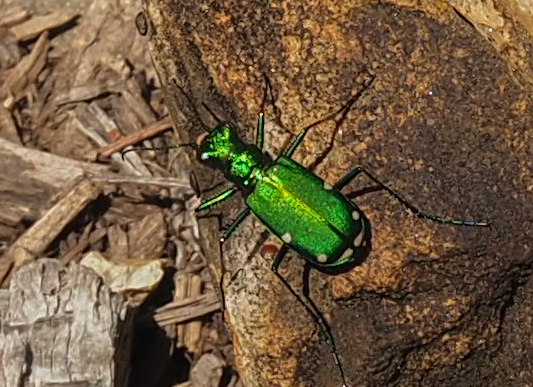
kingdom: Animalia
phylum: Arthropoda
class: Insecta
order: Coleoptera
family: Carabidae
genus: Cicindela
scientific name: Cicindela sexguttata
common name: Six-spotted tiger beetle
